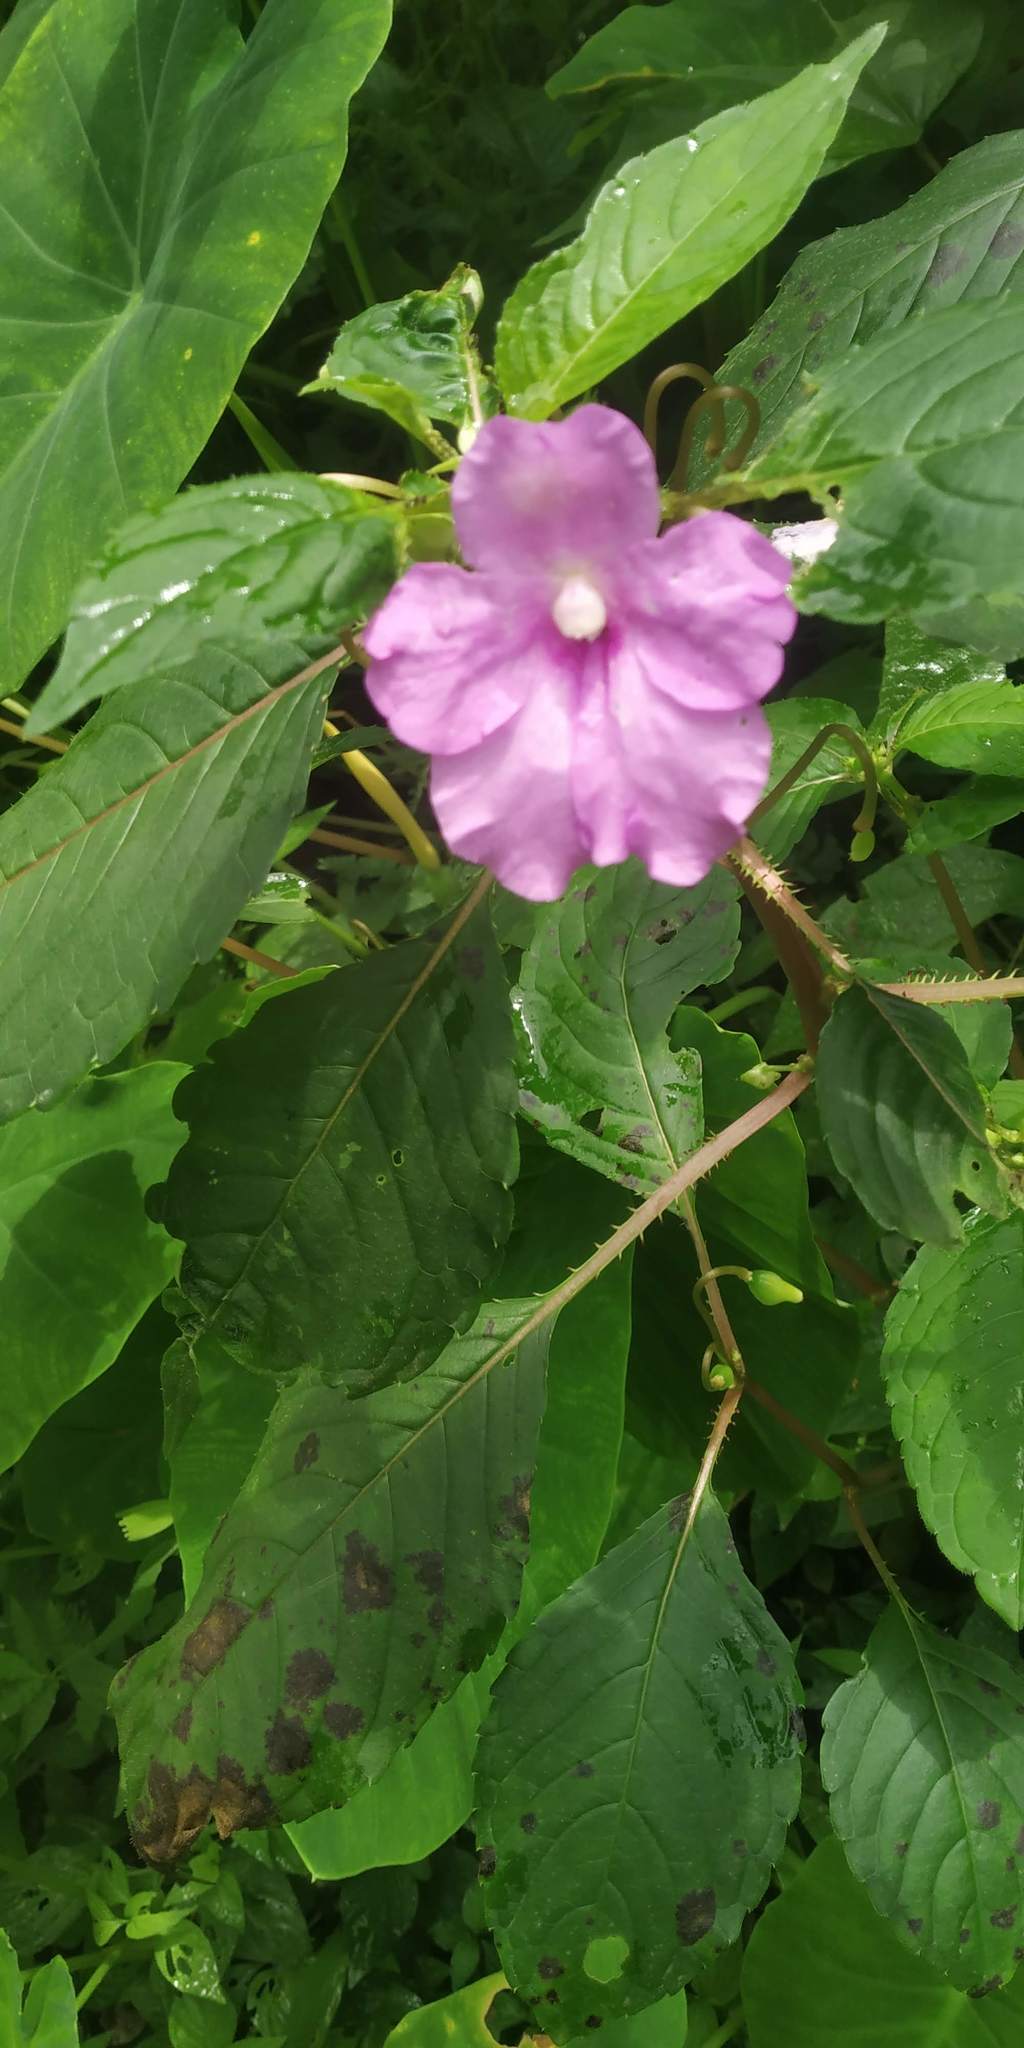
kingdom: Plantae
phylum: Tracheophyta
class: Magnoliopsida
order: Ericales
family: Balsaminaceae
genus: Impatiens
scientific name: Impatiens pulcherrima
